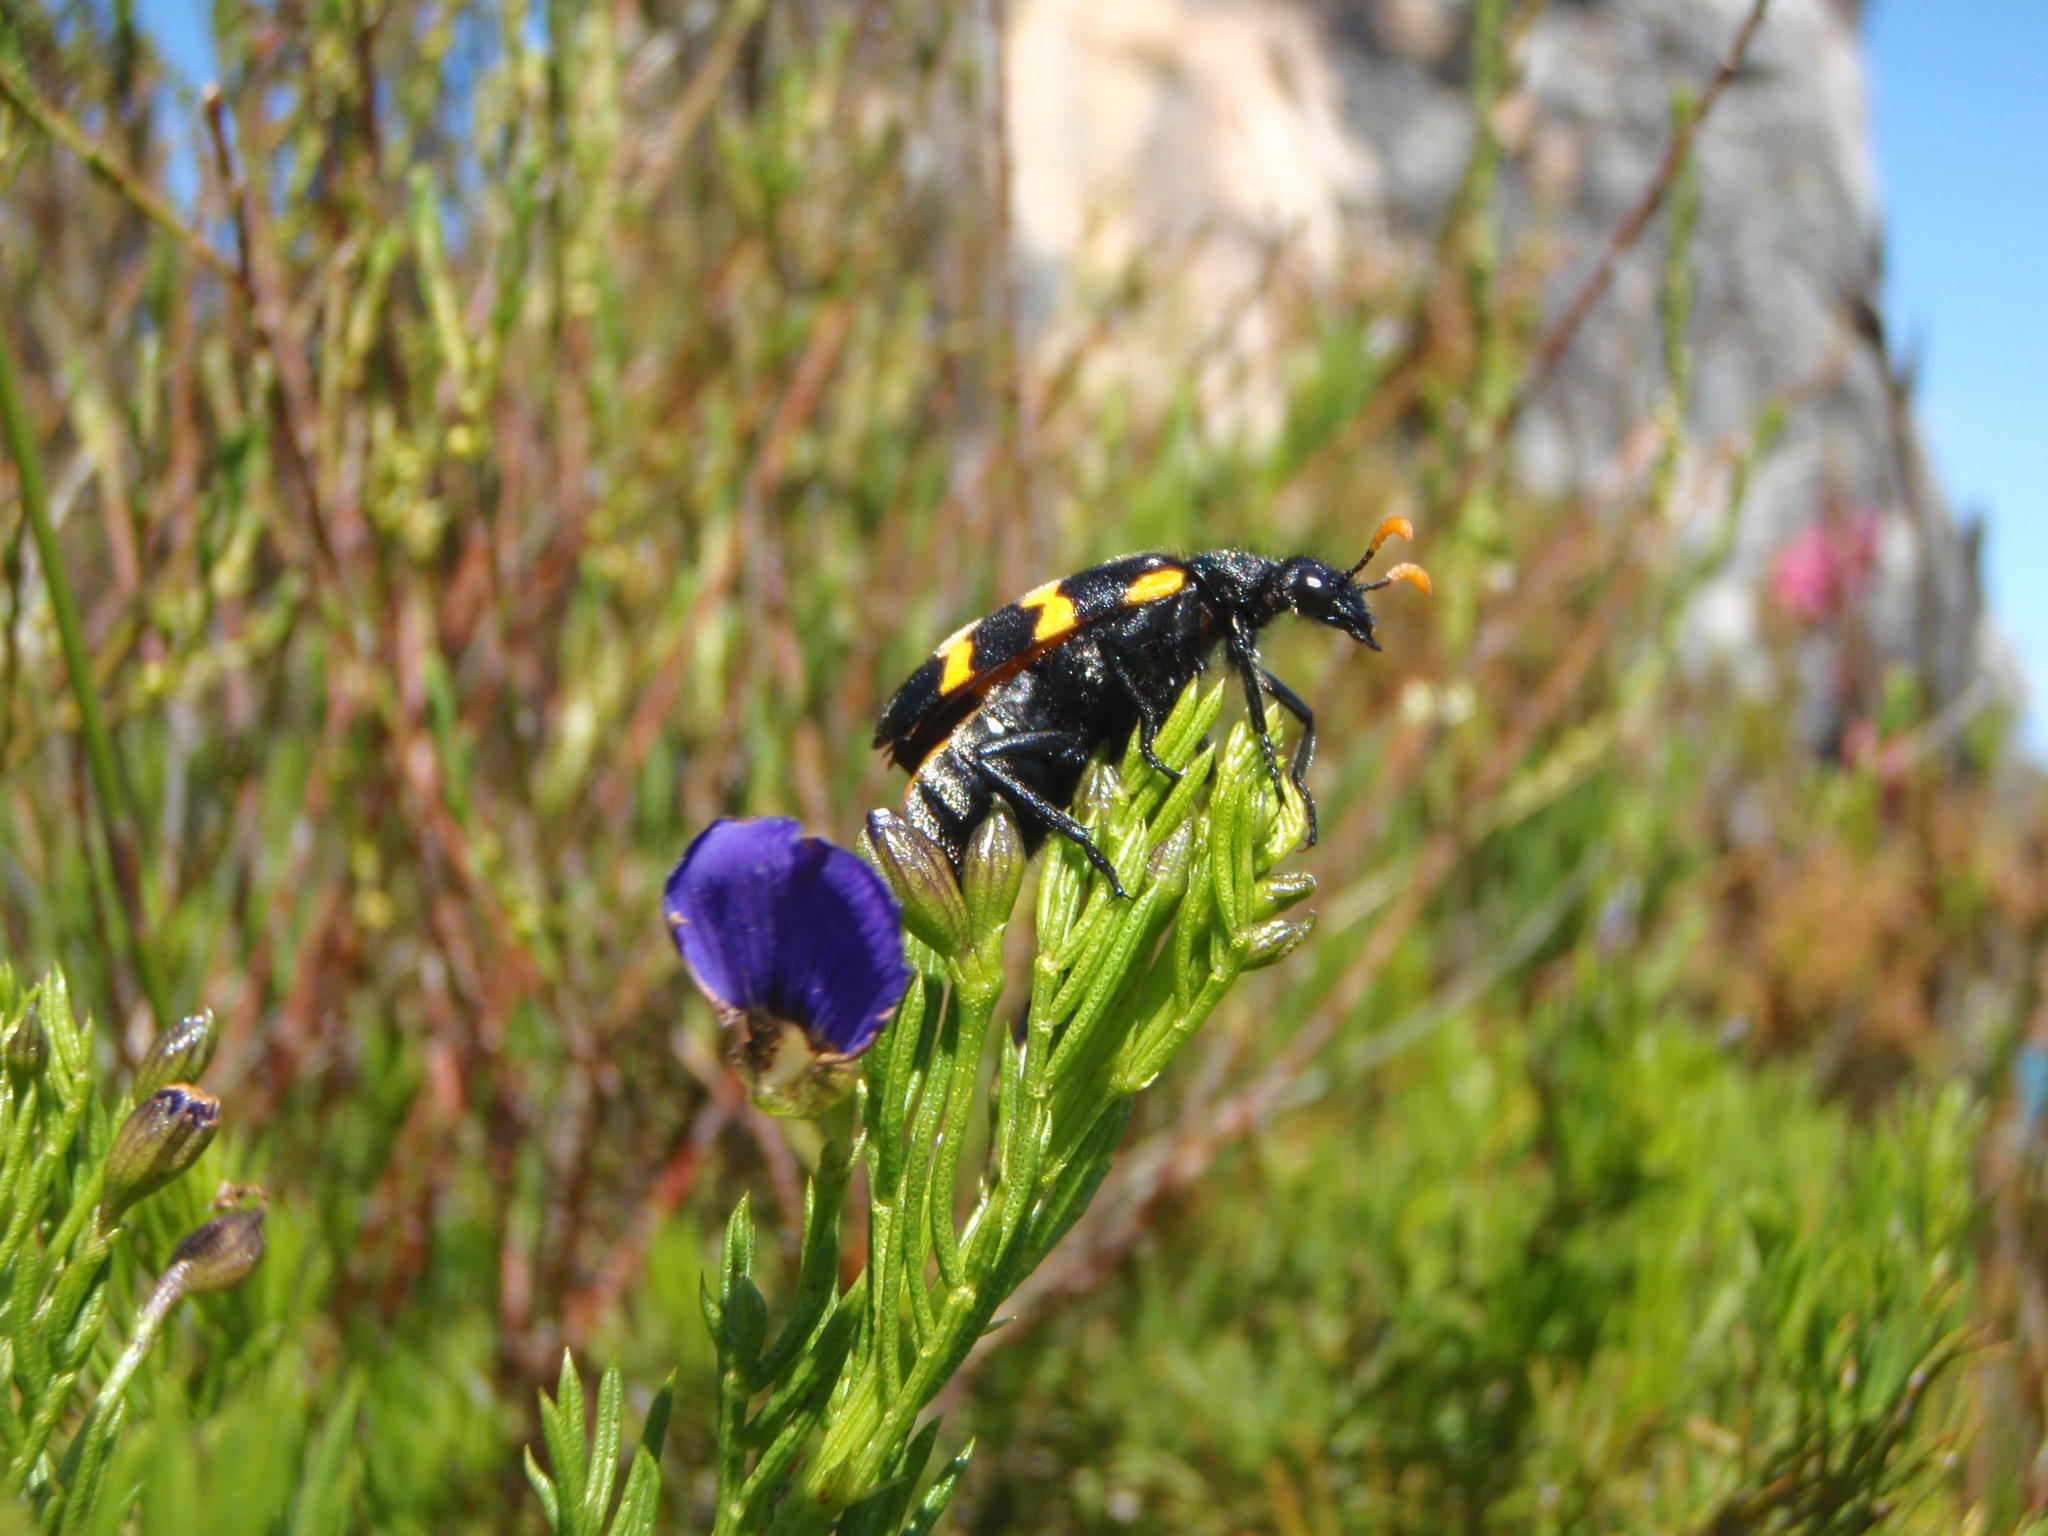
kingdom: Plantae
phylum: Tracheophyta
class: Magnoliopsida
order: Fabales
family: Fabaceae
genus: Psoralea
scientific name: Psoralea laevigata
